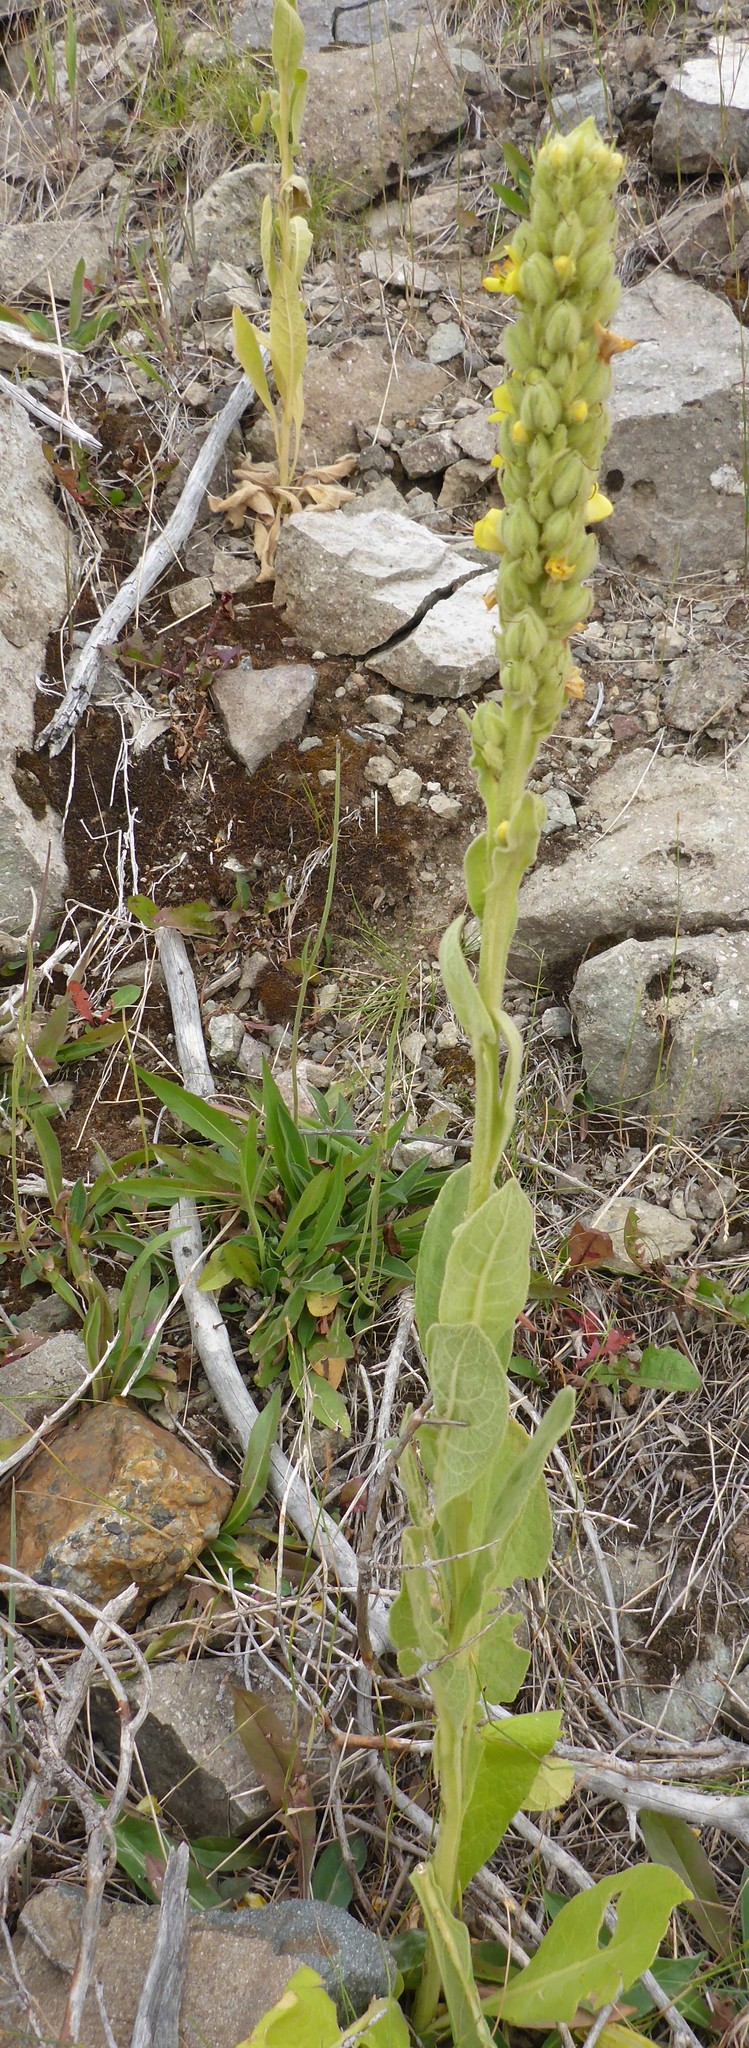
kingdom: Plantae
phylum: Tracheophyta
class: Magnoliopsida
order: Lamiales
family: Scrophulariaceae
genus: Verbascum
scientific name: Verbascum thapsus
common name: Common mullein
